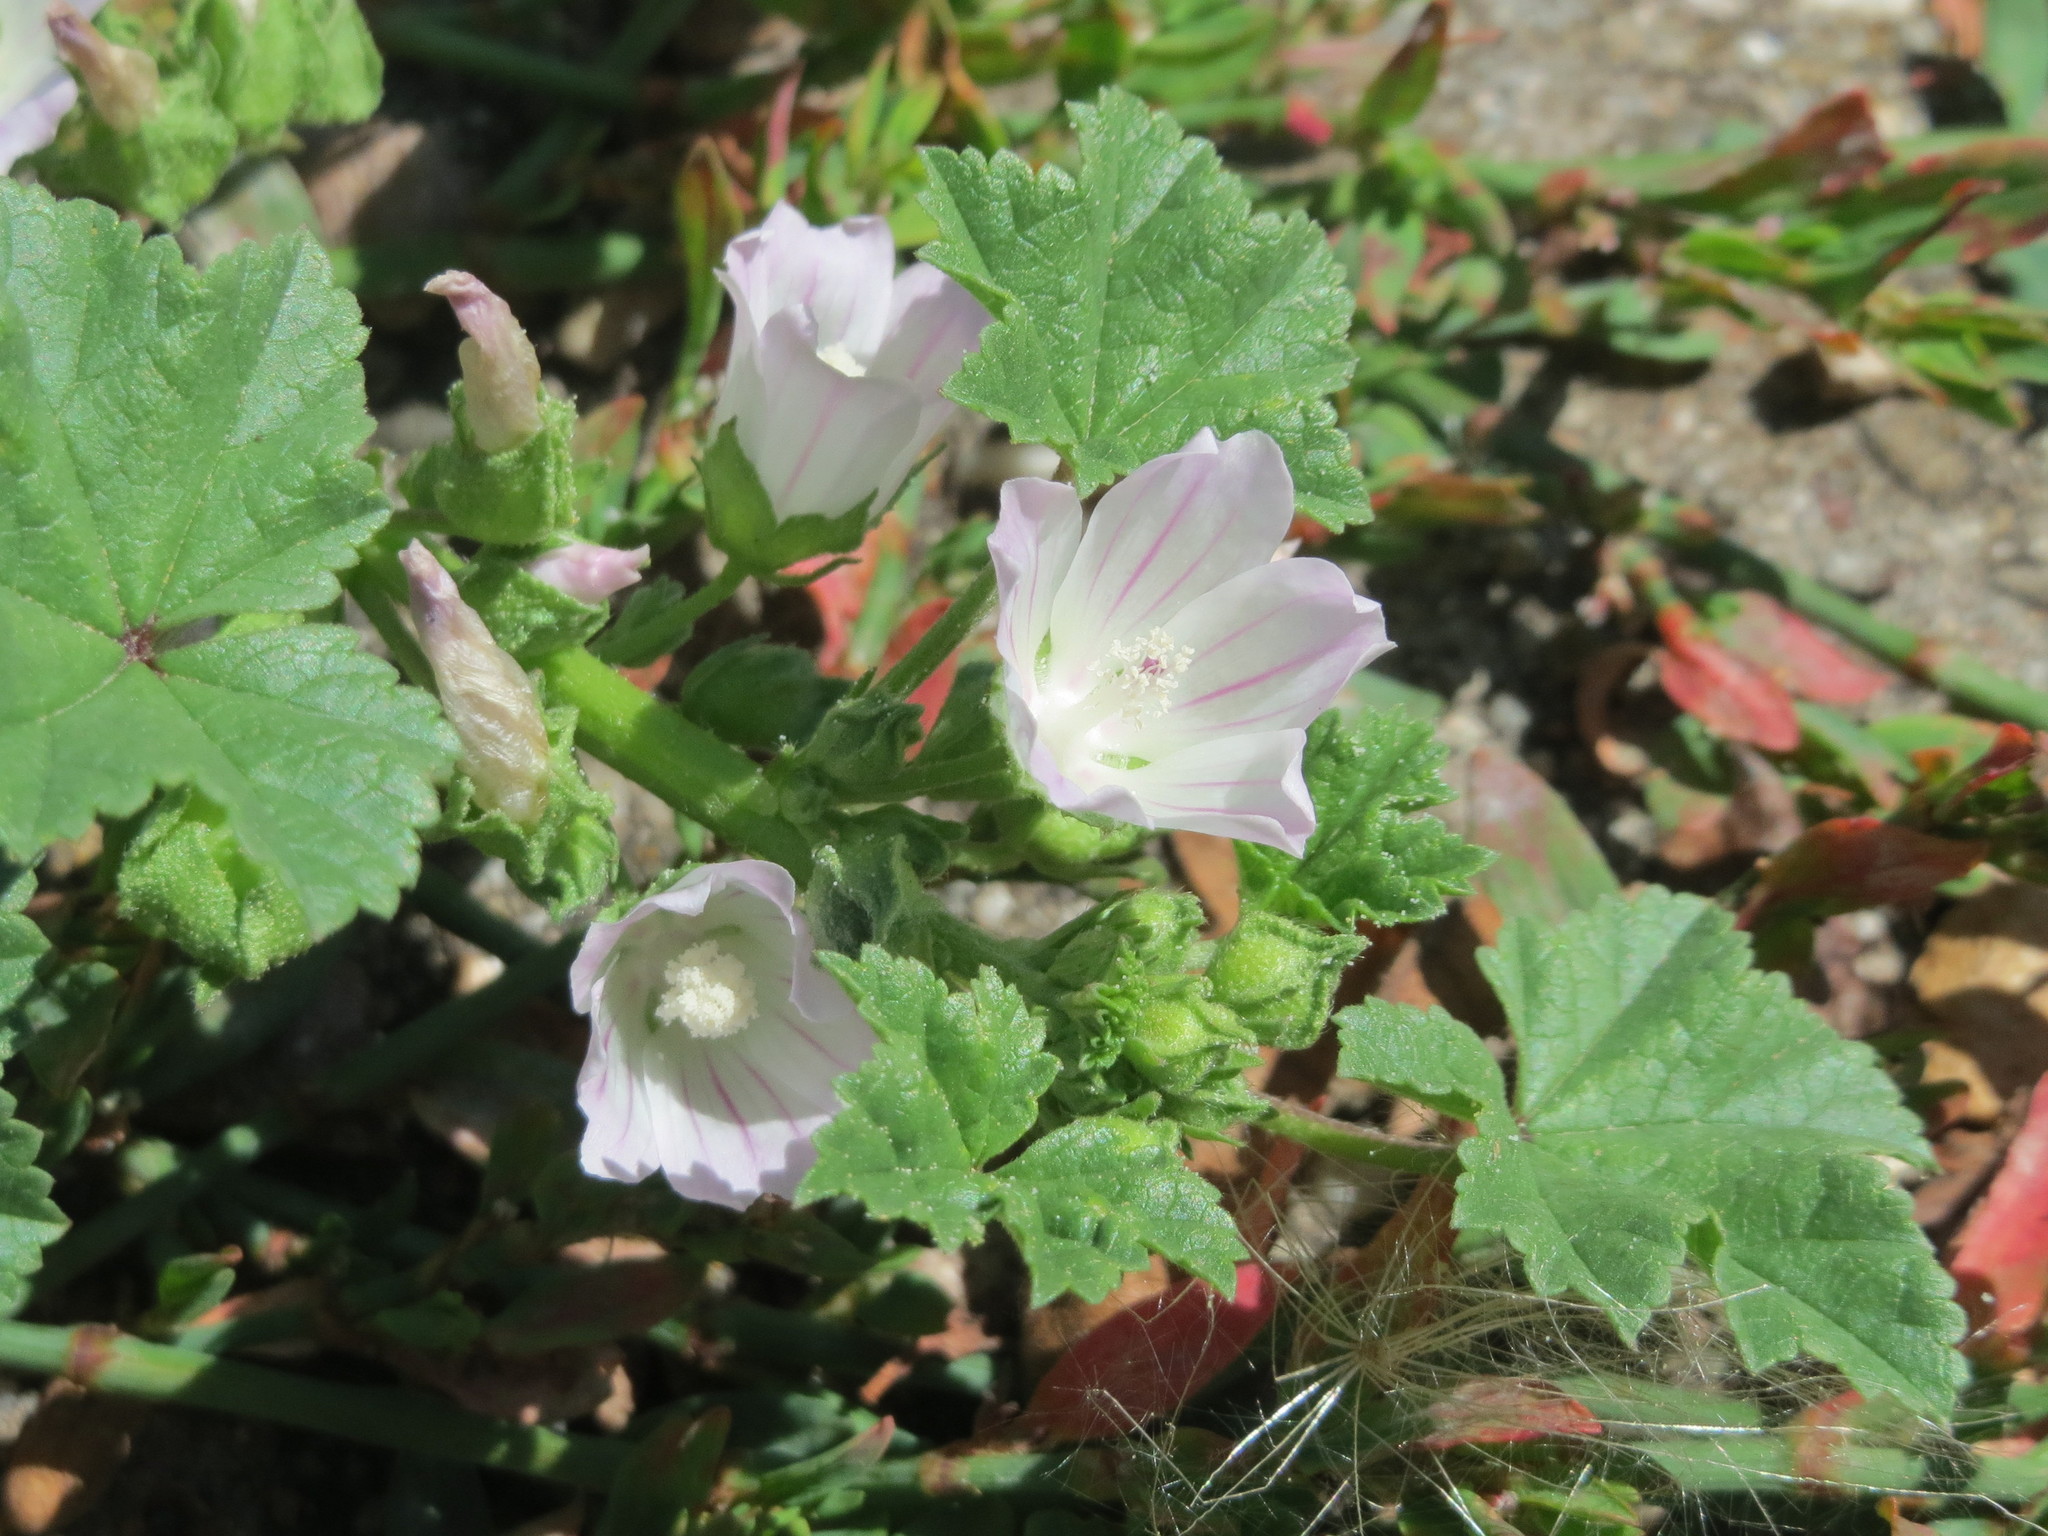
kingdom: Plantae
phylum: Tracheophyta
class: Magnoliopsida
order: Malvales
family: Malvaceae
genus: Malva
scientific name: Malva neglecta
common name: Common mallow
